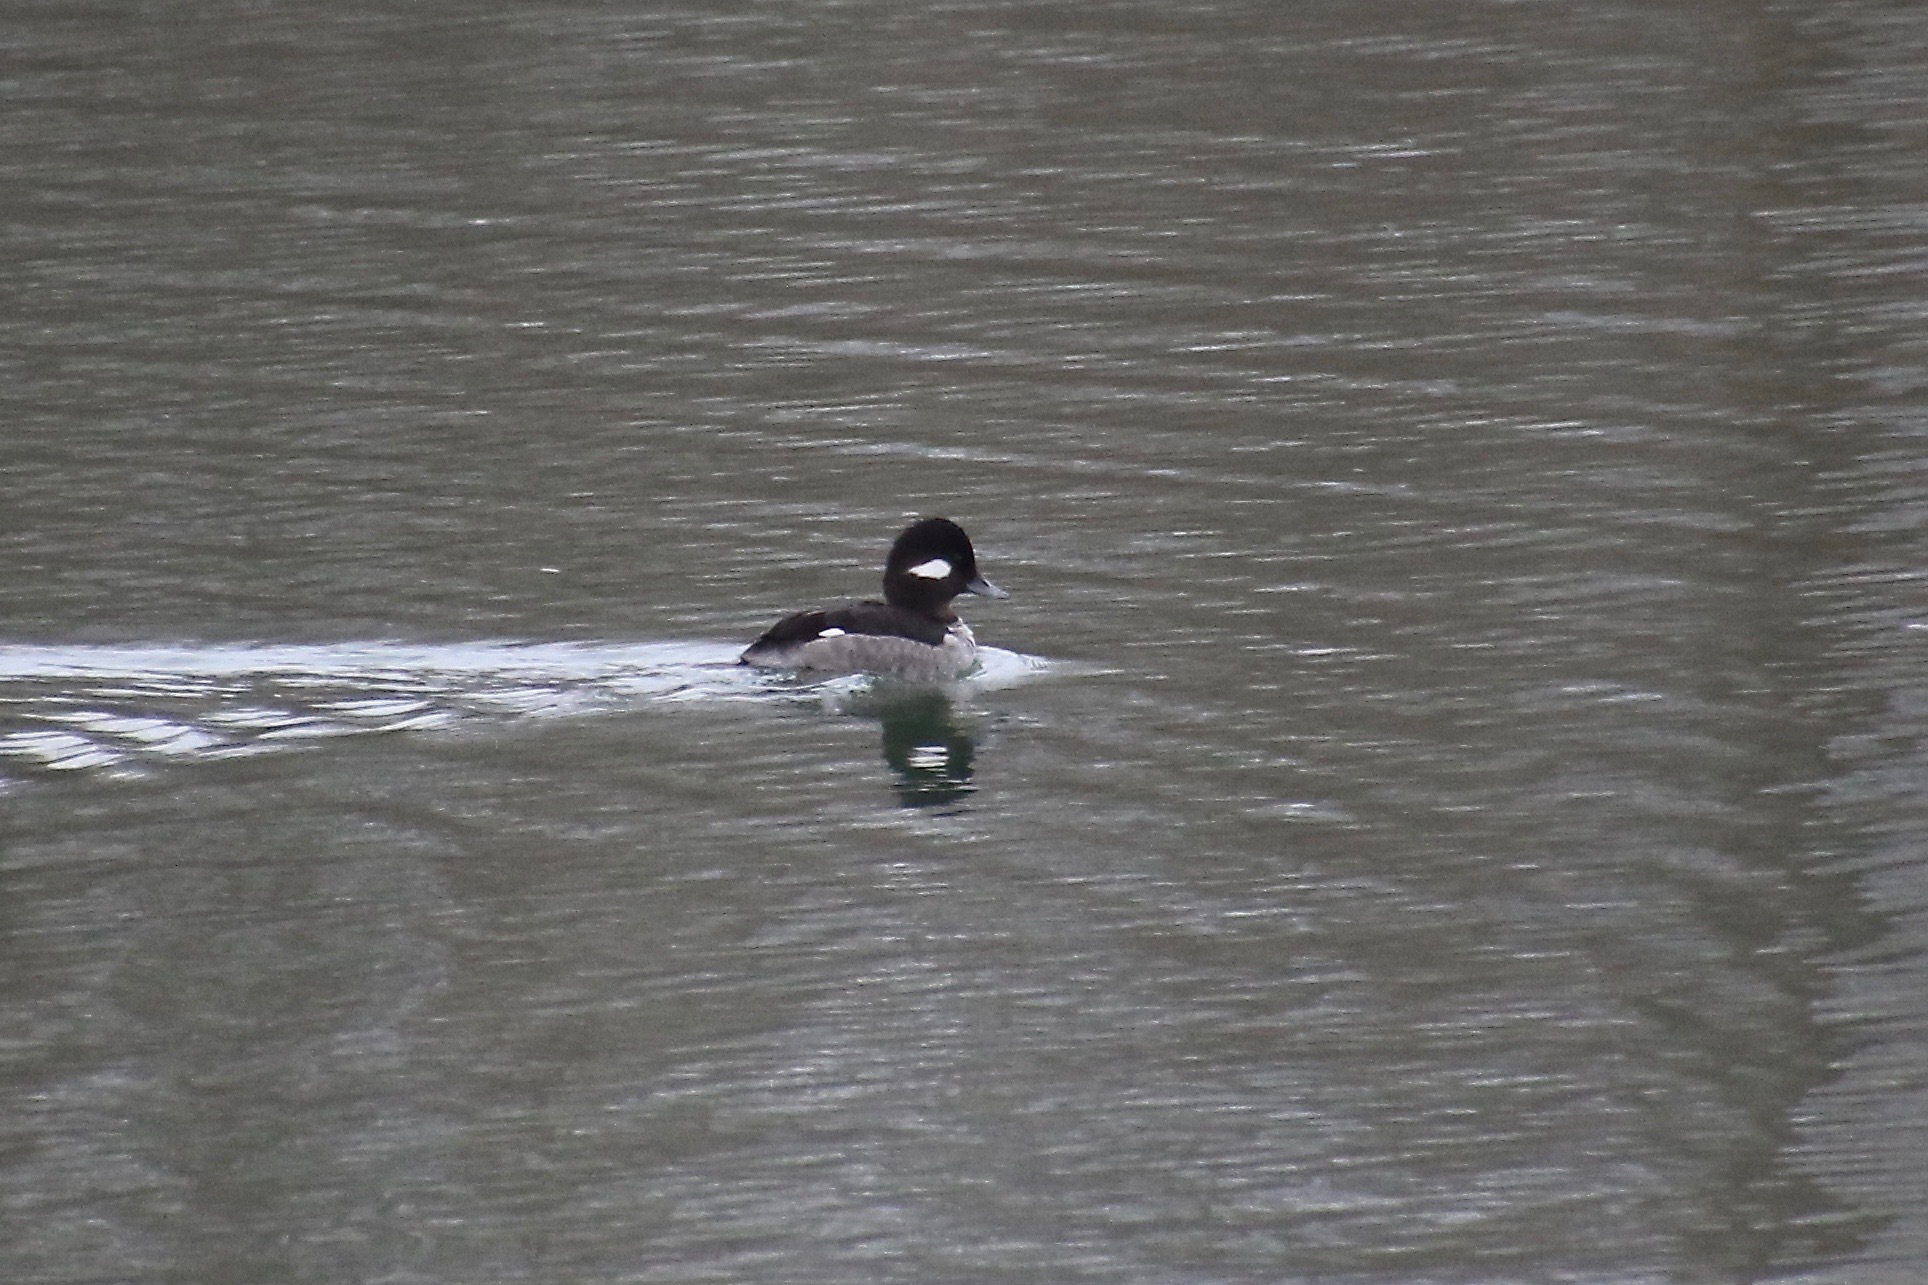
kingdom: Animalia
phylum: Chordata
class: Aves
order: Anseriformes
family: Anatidae
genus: Bucephala
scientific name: Bucephala albeola
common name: Bufflehead
